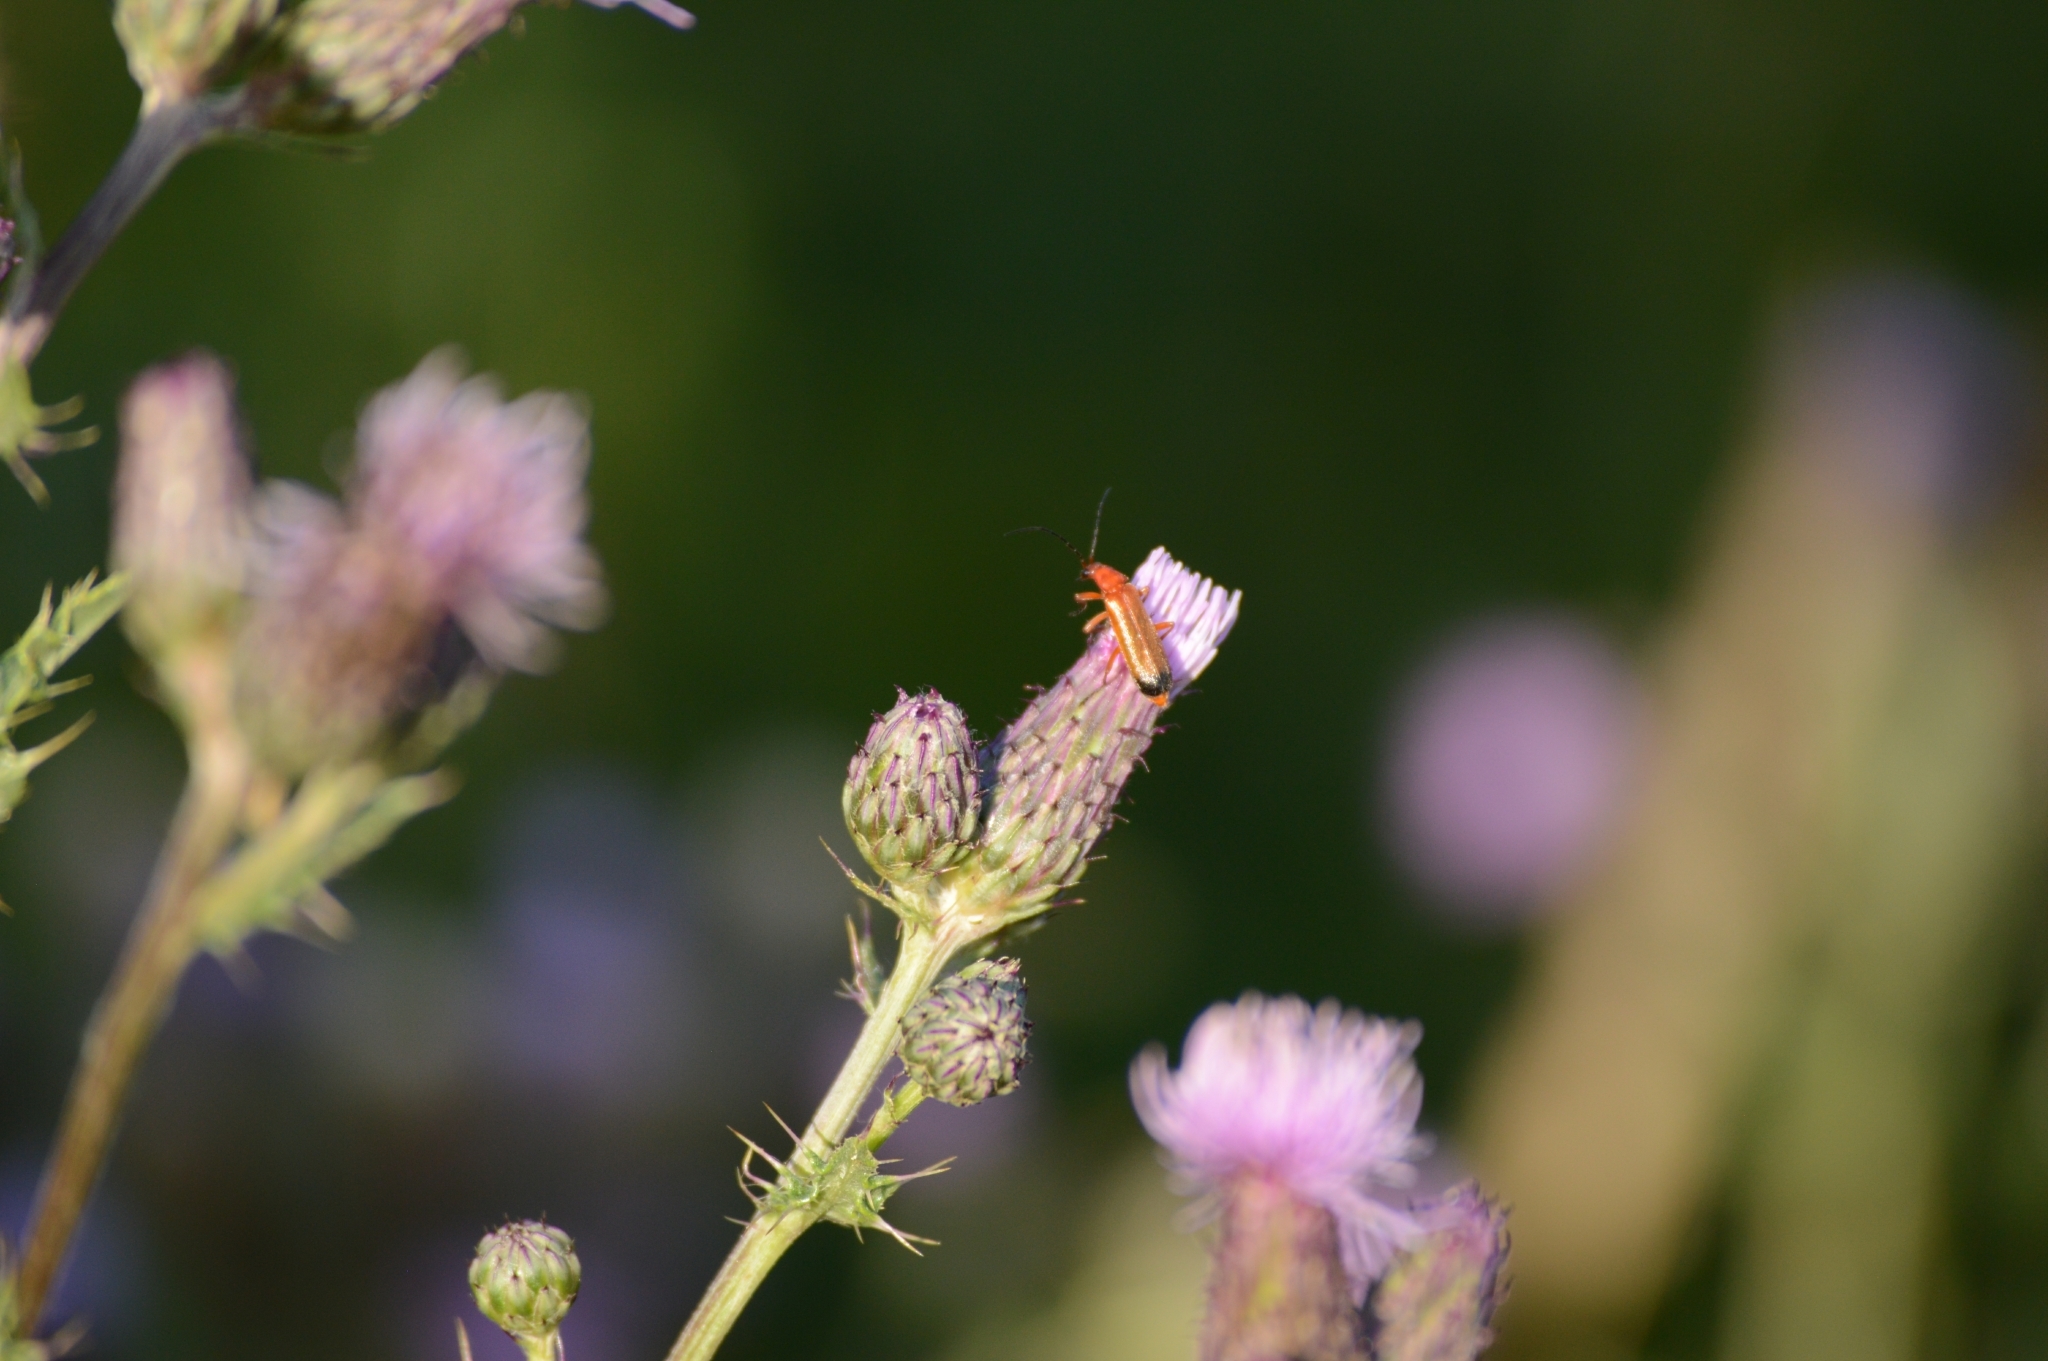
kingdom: Animalia
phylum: Arthropoda
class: Insecta
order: Coleoptera
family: Cantharidae
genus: Rhagonycha
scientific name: Rhagonycha fulva
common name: Common red soldier beetle
